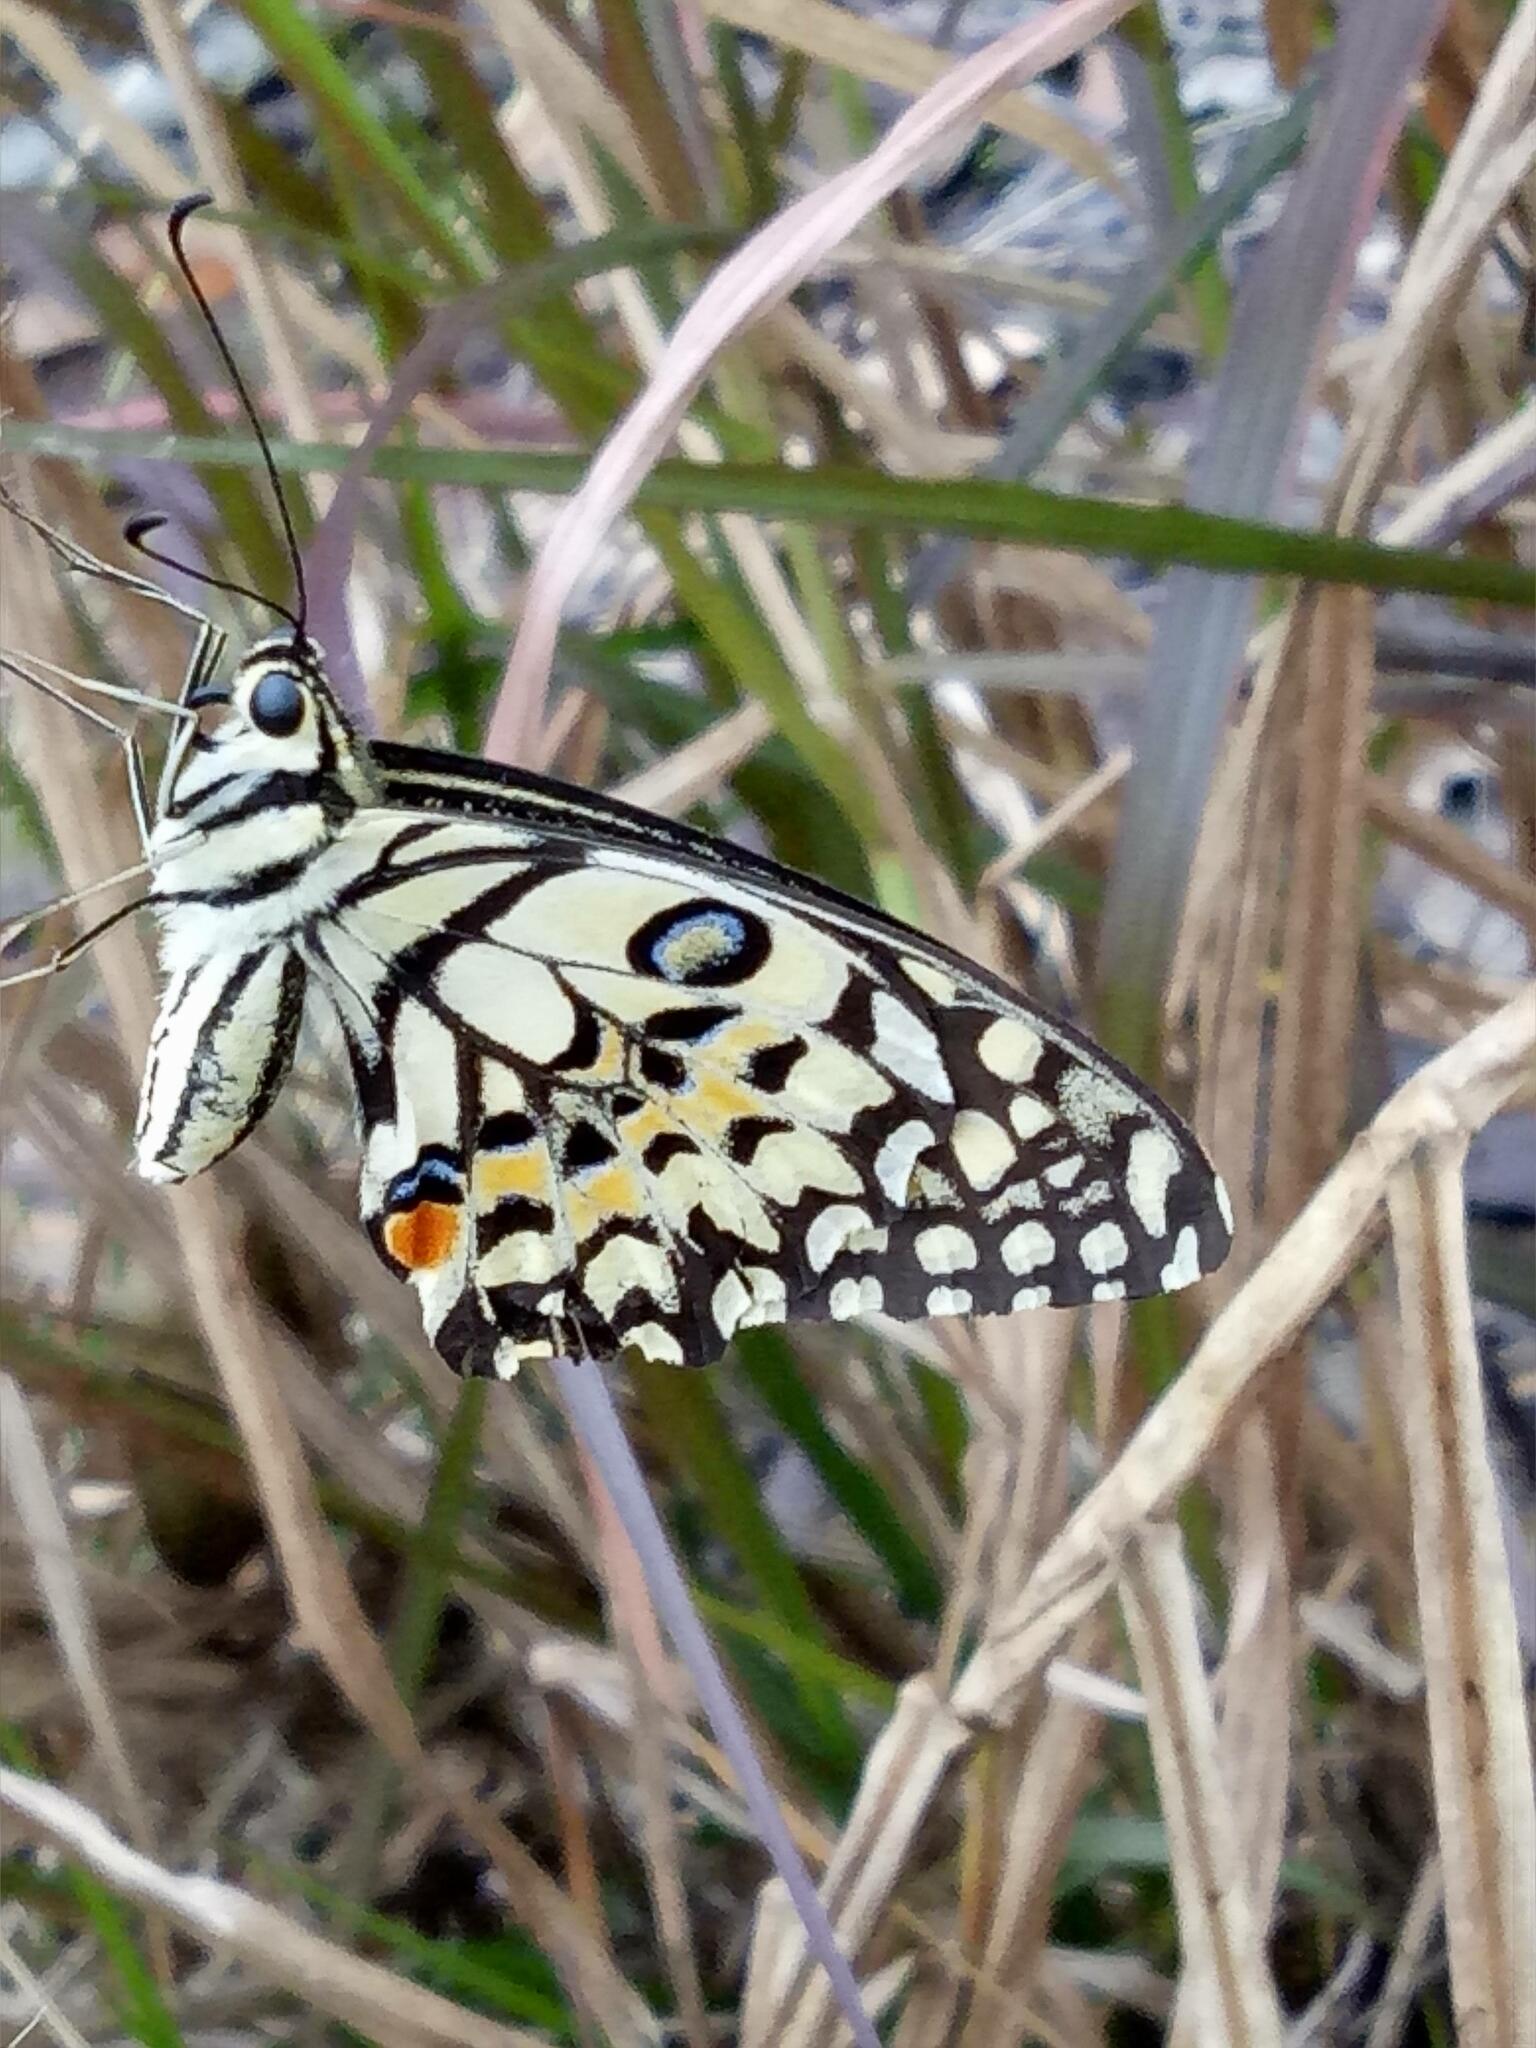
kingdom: Animalia
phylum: Arthropoda
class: Insecta
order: Lepidoptera
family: Papilionidae
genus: Papilio
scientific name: Papilio demoleus
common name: Lime butterfly
